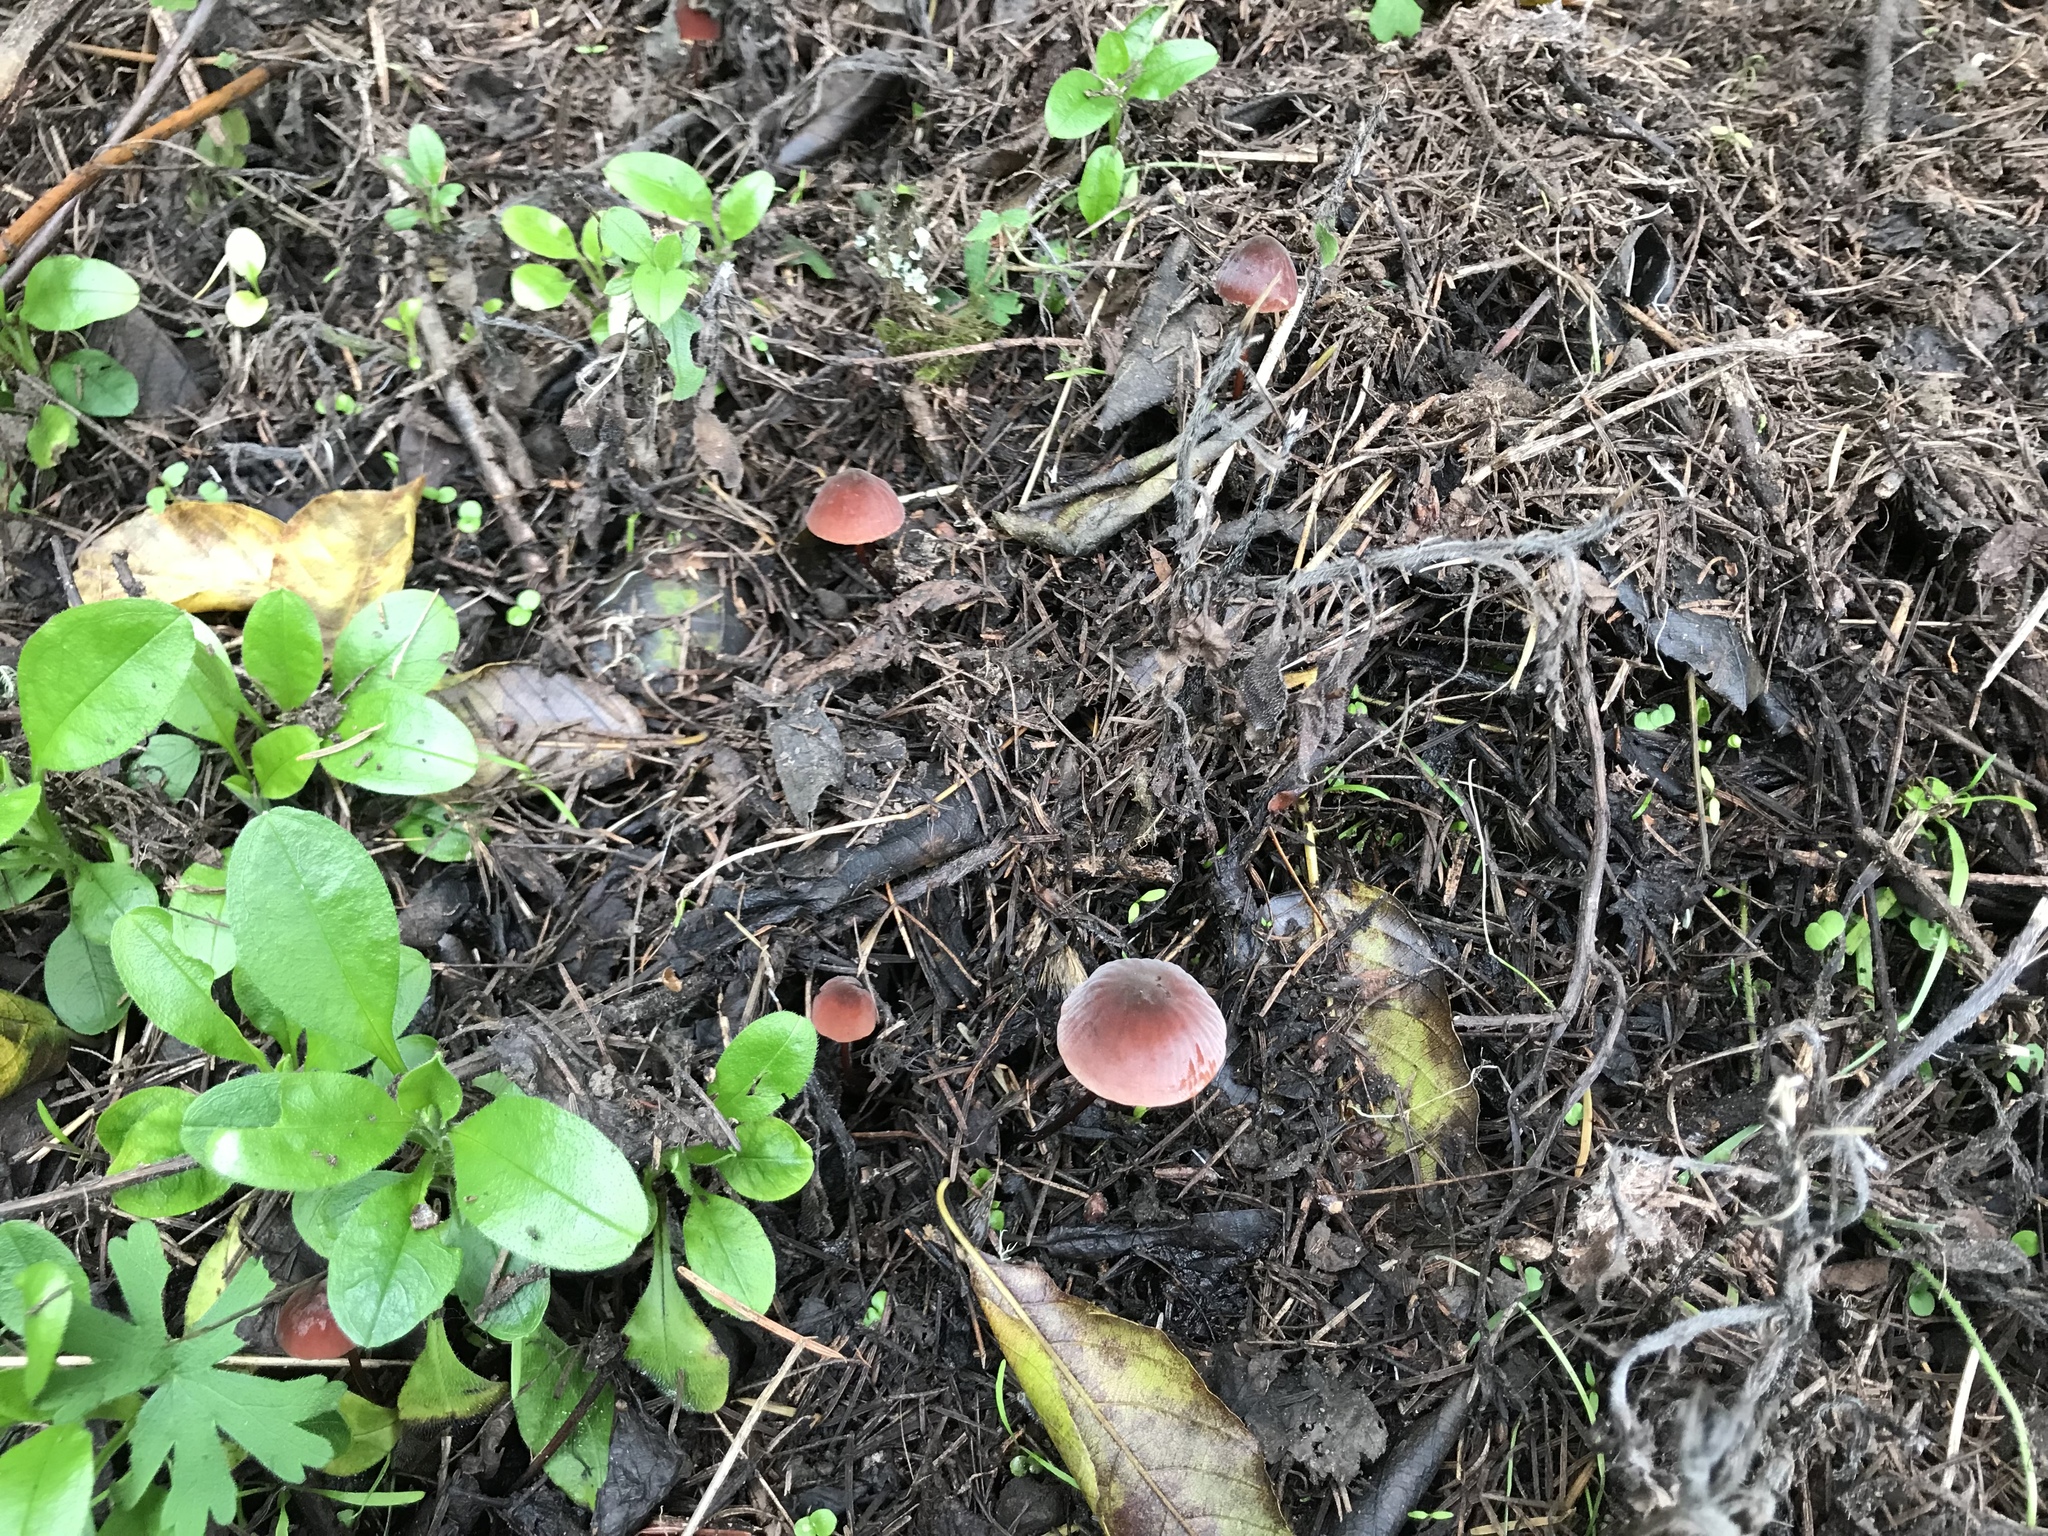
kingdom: Fungi
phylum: Basidiomycota
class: Agaricomycetes
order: Agaricales
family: Marasmiaceae
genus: Marasmius
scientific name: Marasmius plicatulus
